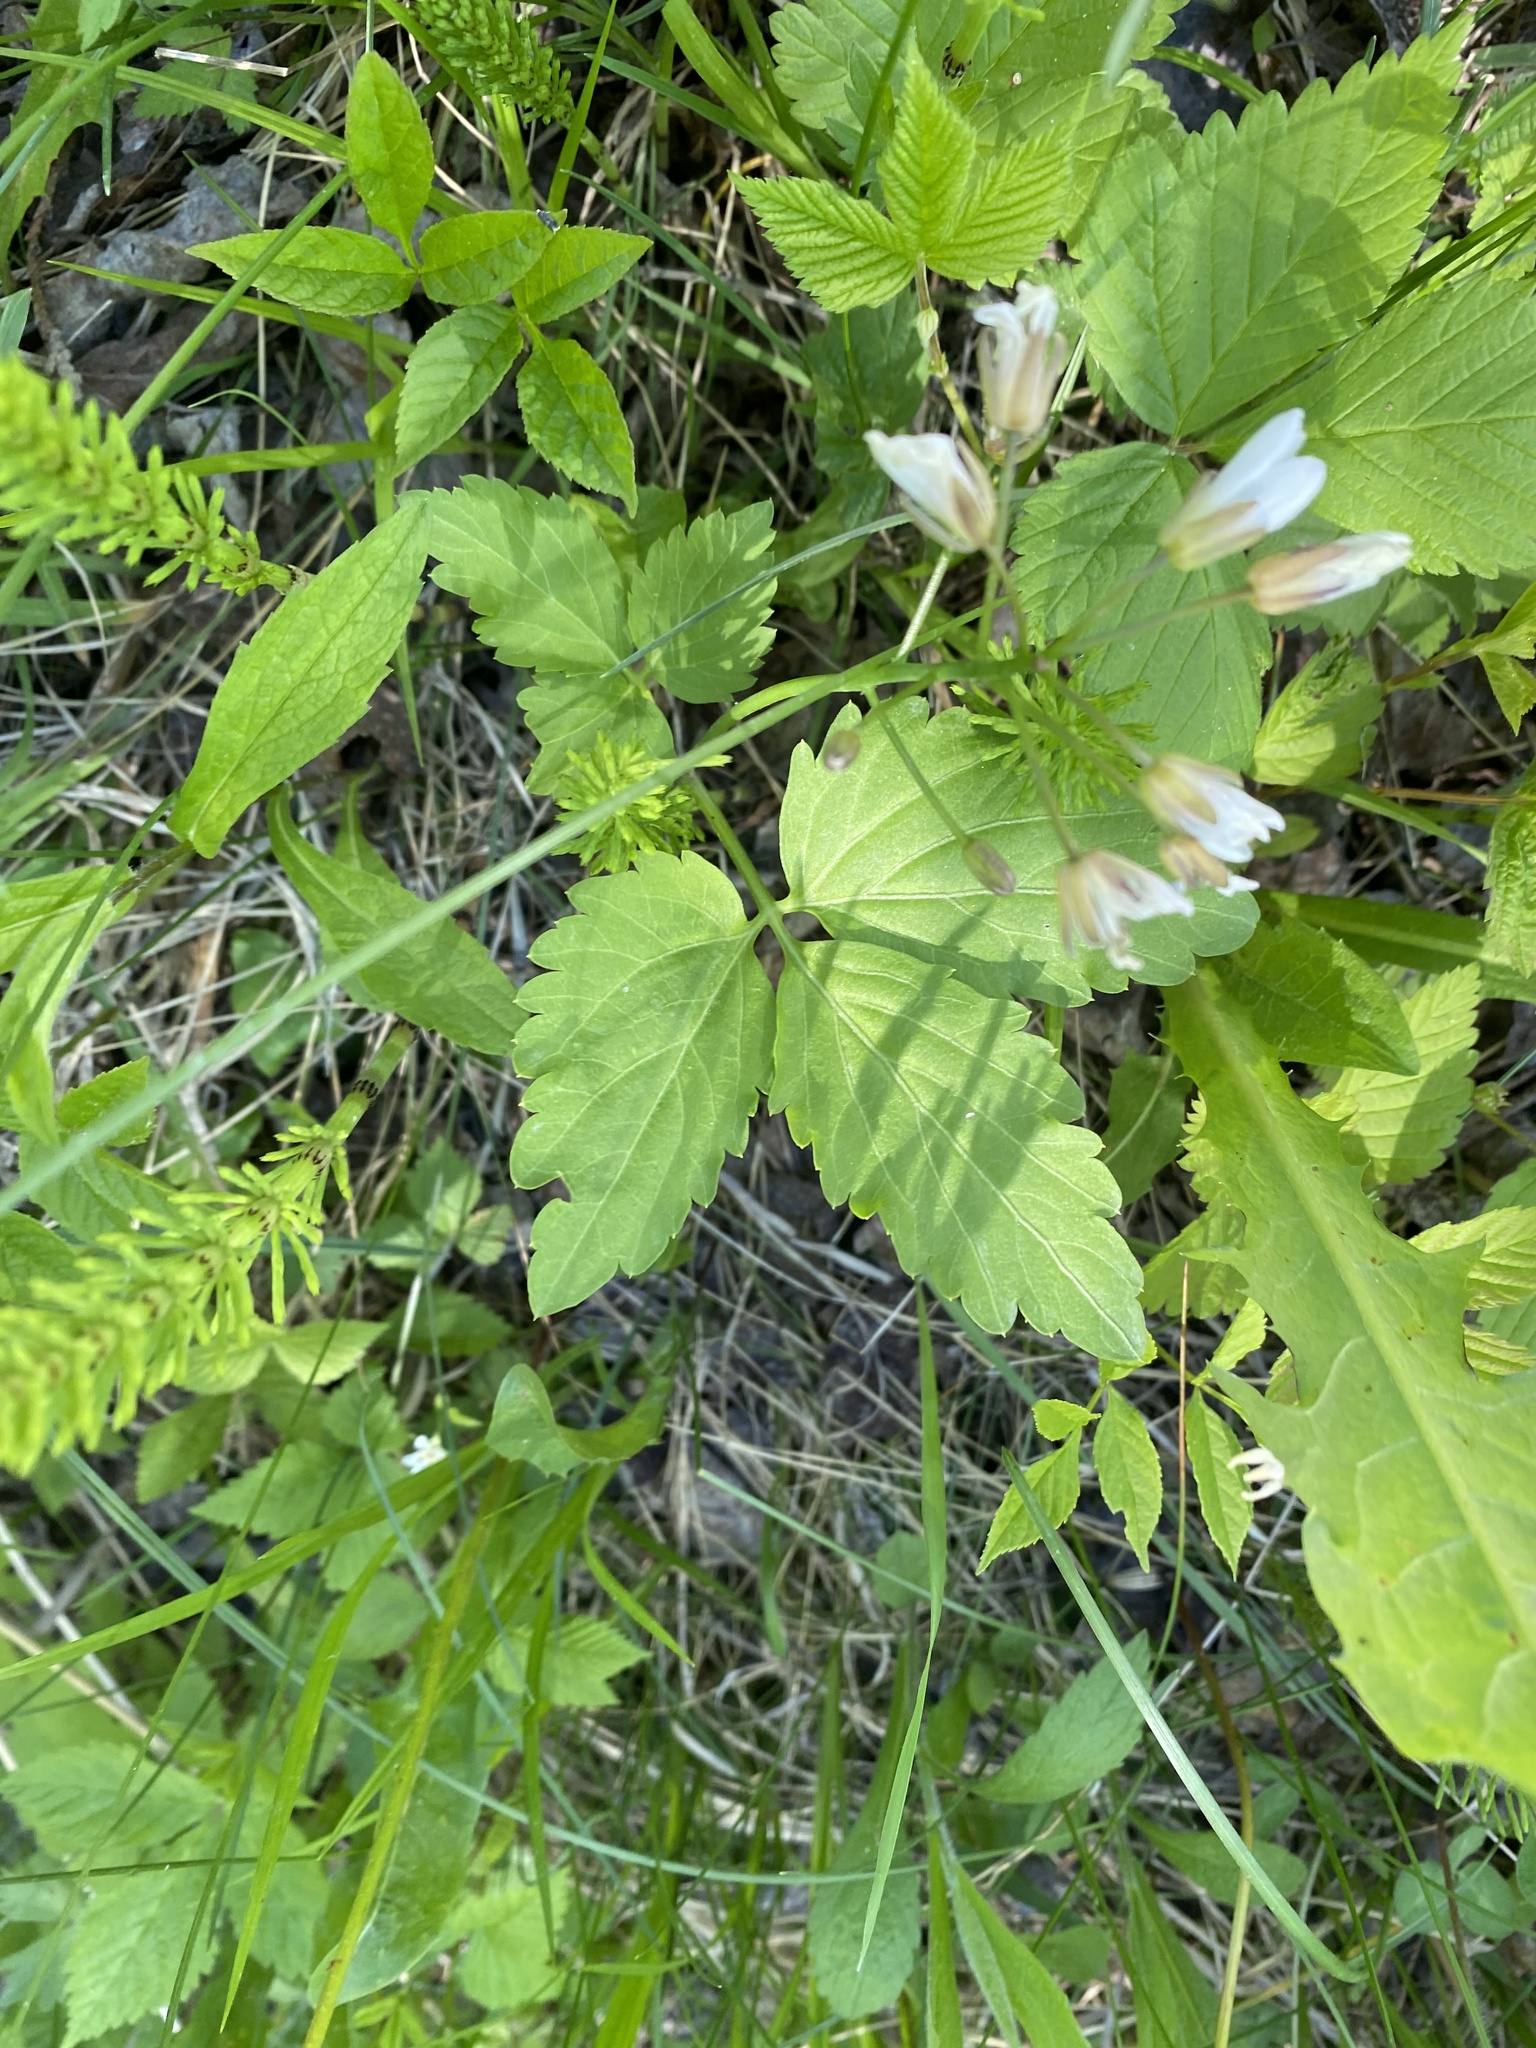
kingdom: Plantae
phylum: Tracheophyta
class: Magnoliopsida
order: Brassicales
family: Brassicaceae
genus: Cardamine
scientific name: Cardamine diphylla
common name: Broad-leaved toothwort
